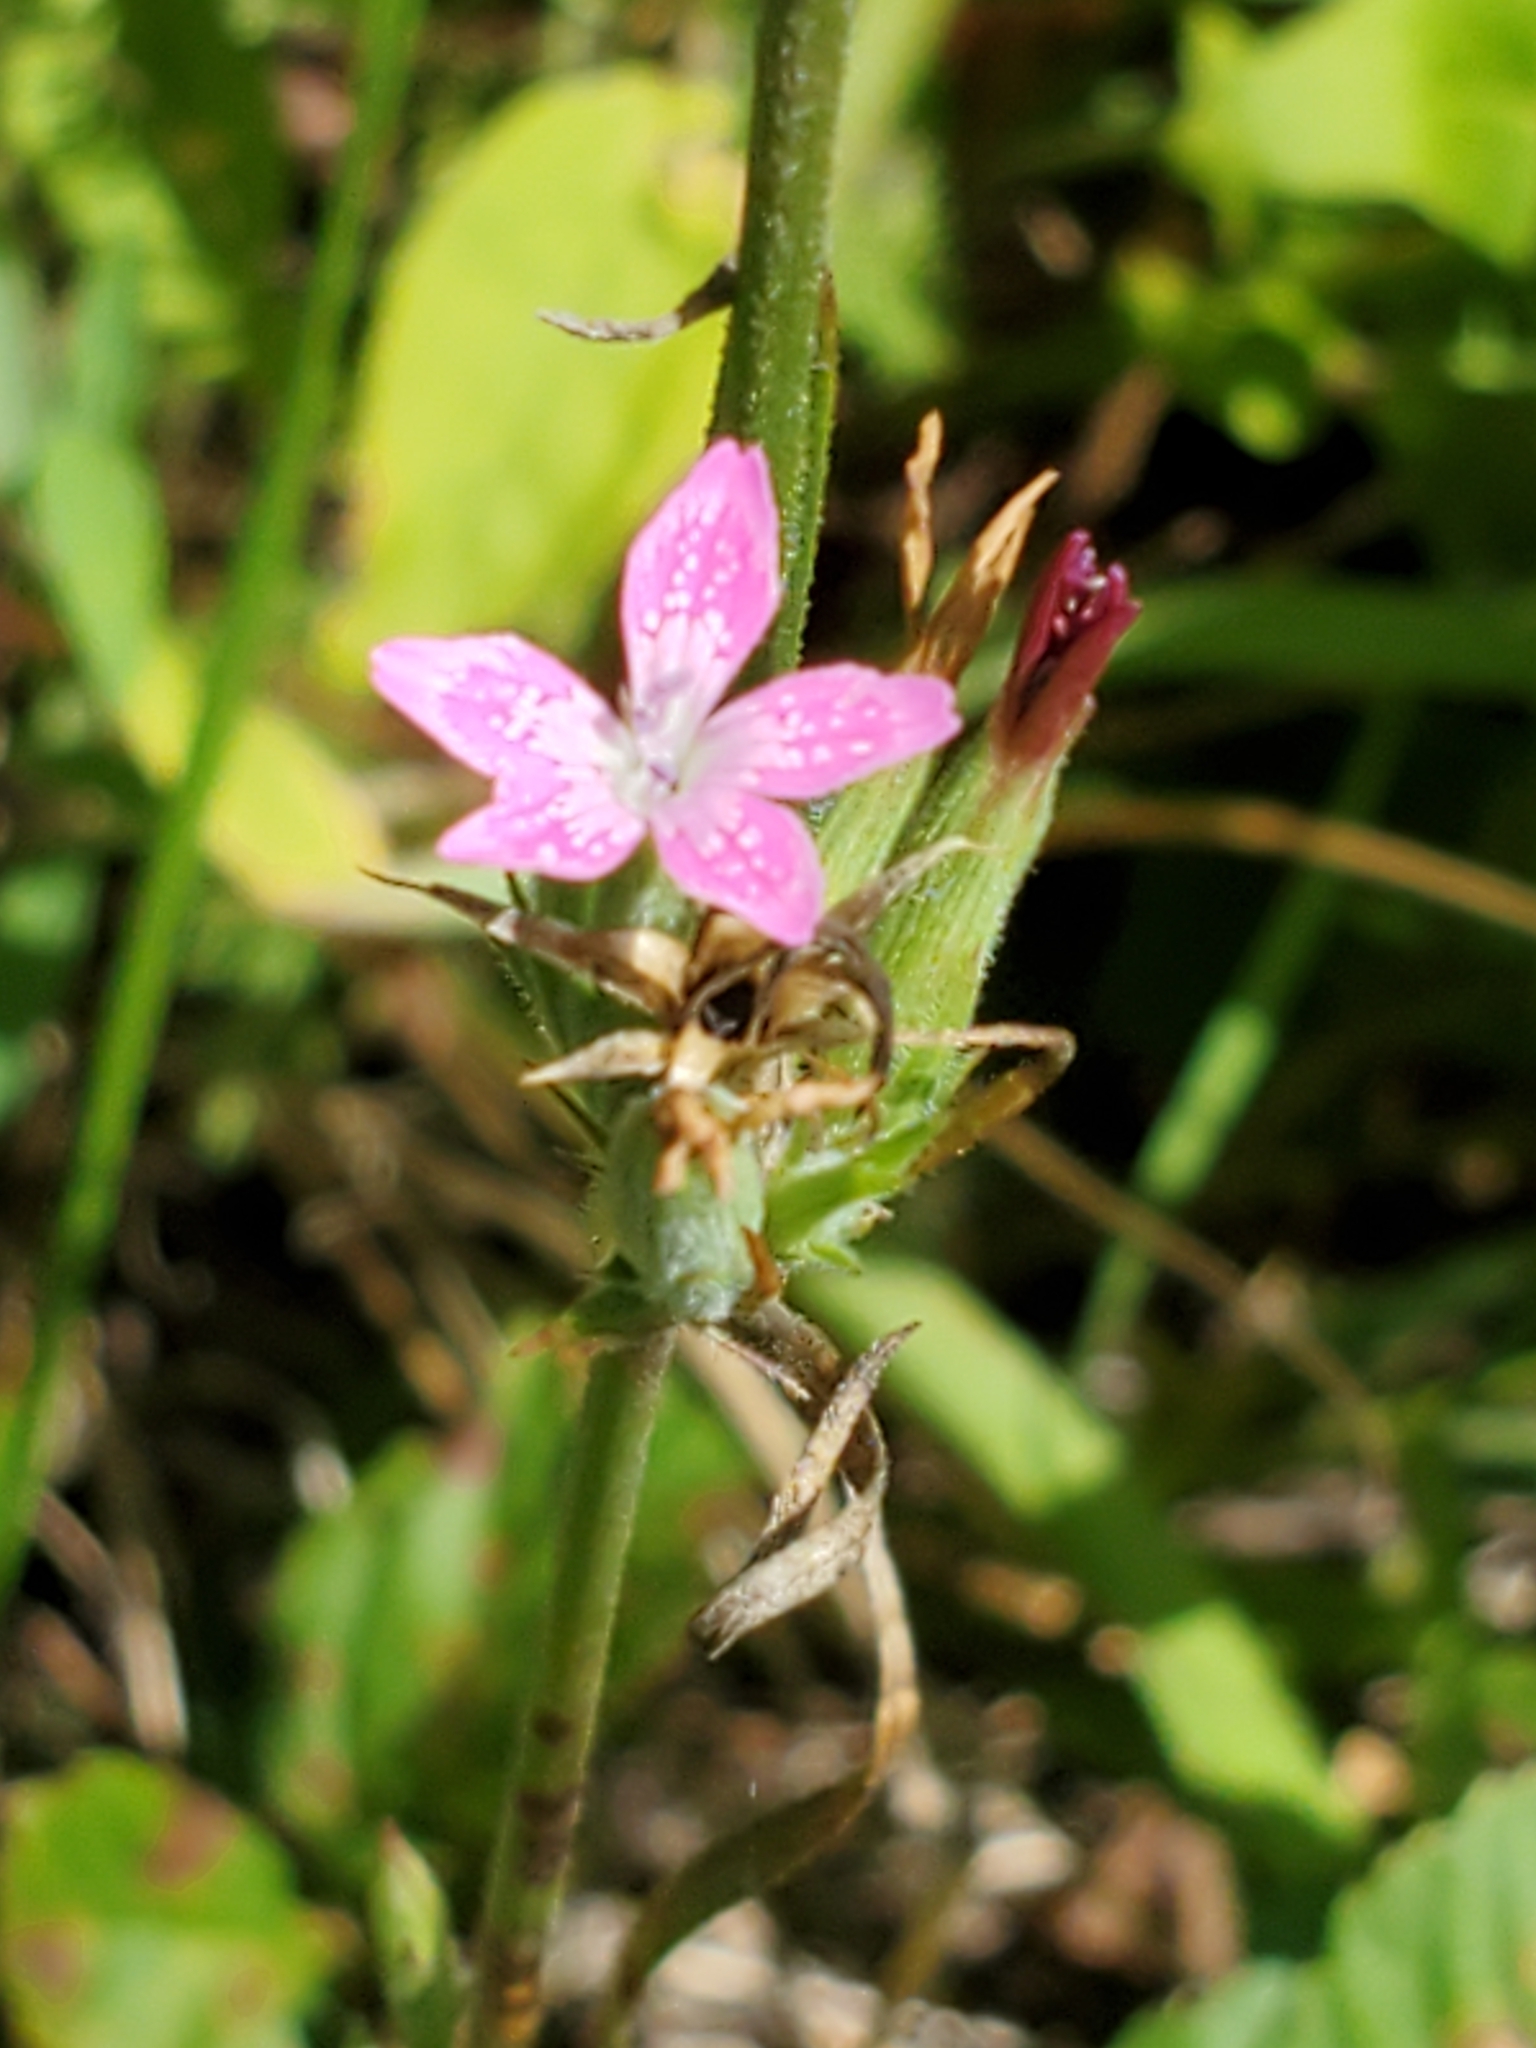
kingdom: Plantae
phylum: Tracheophyta
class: Magnoliopsida
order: Caryophyllales
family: Caryophyllaceae
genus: Dianthus
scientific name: Dianthus armeria
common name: Deptford pink
